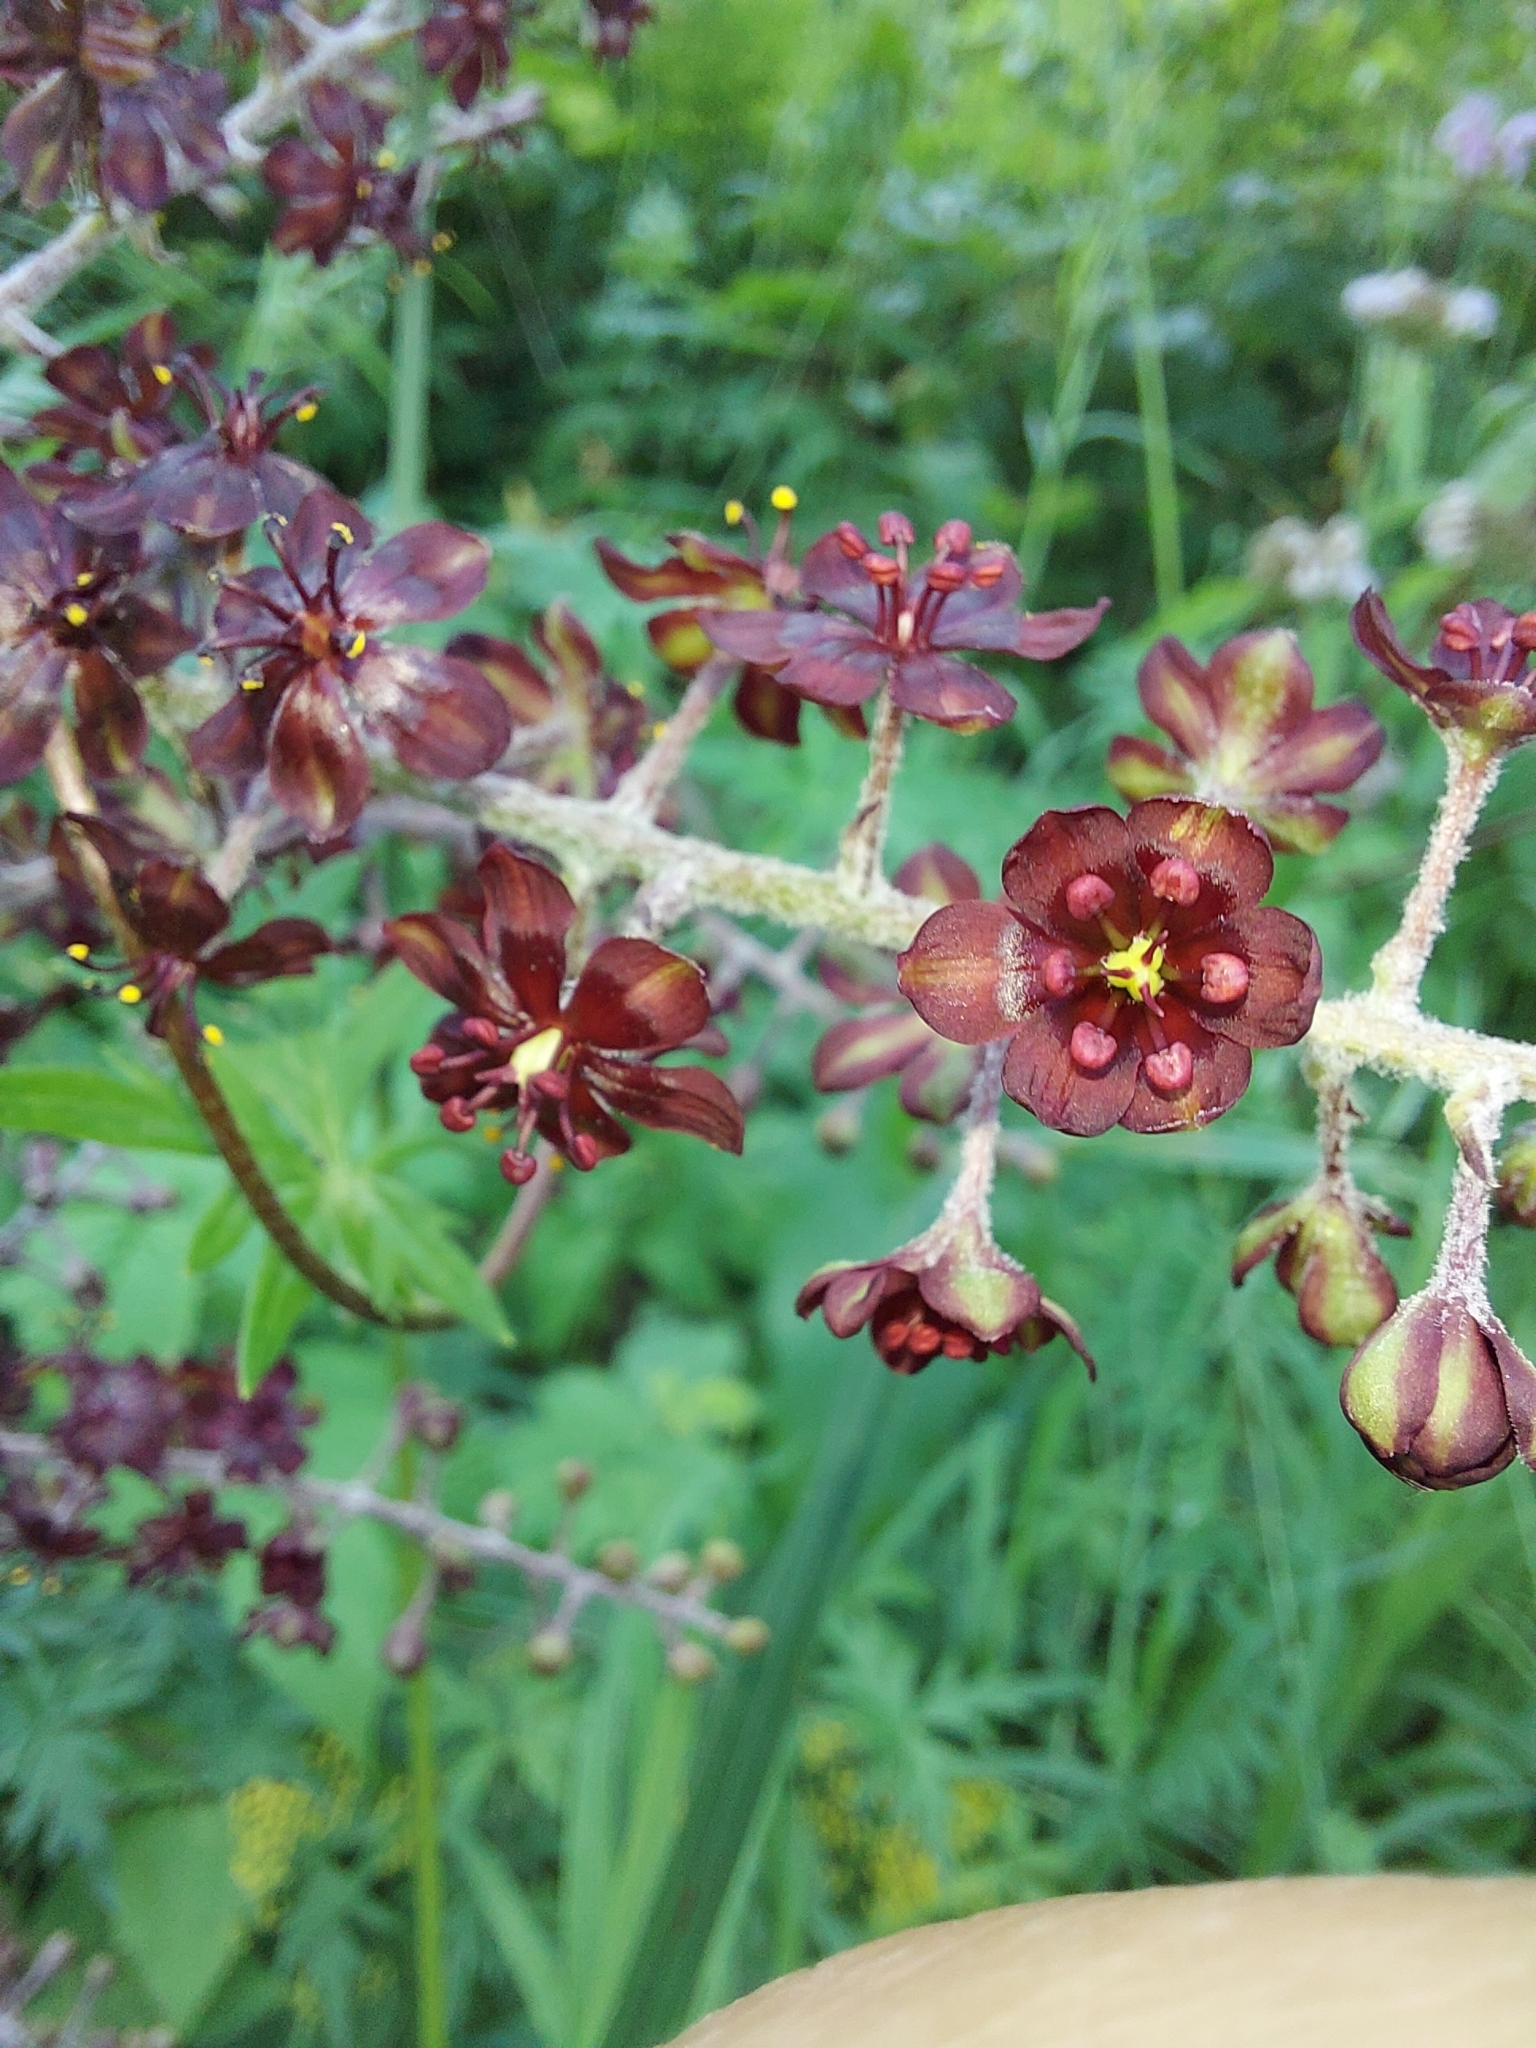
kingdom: Plantae
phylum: Tracheophyta
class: Liliopsida
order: Liliales
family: Melanthiaceae
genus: Veratrum
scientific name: Veratrum nigrum
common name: Black veratrum
